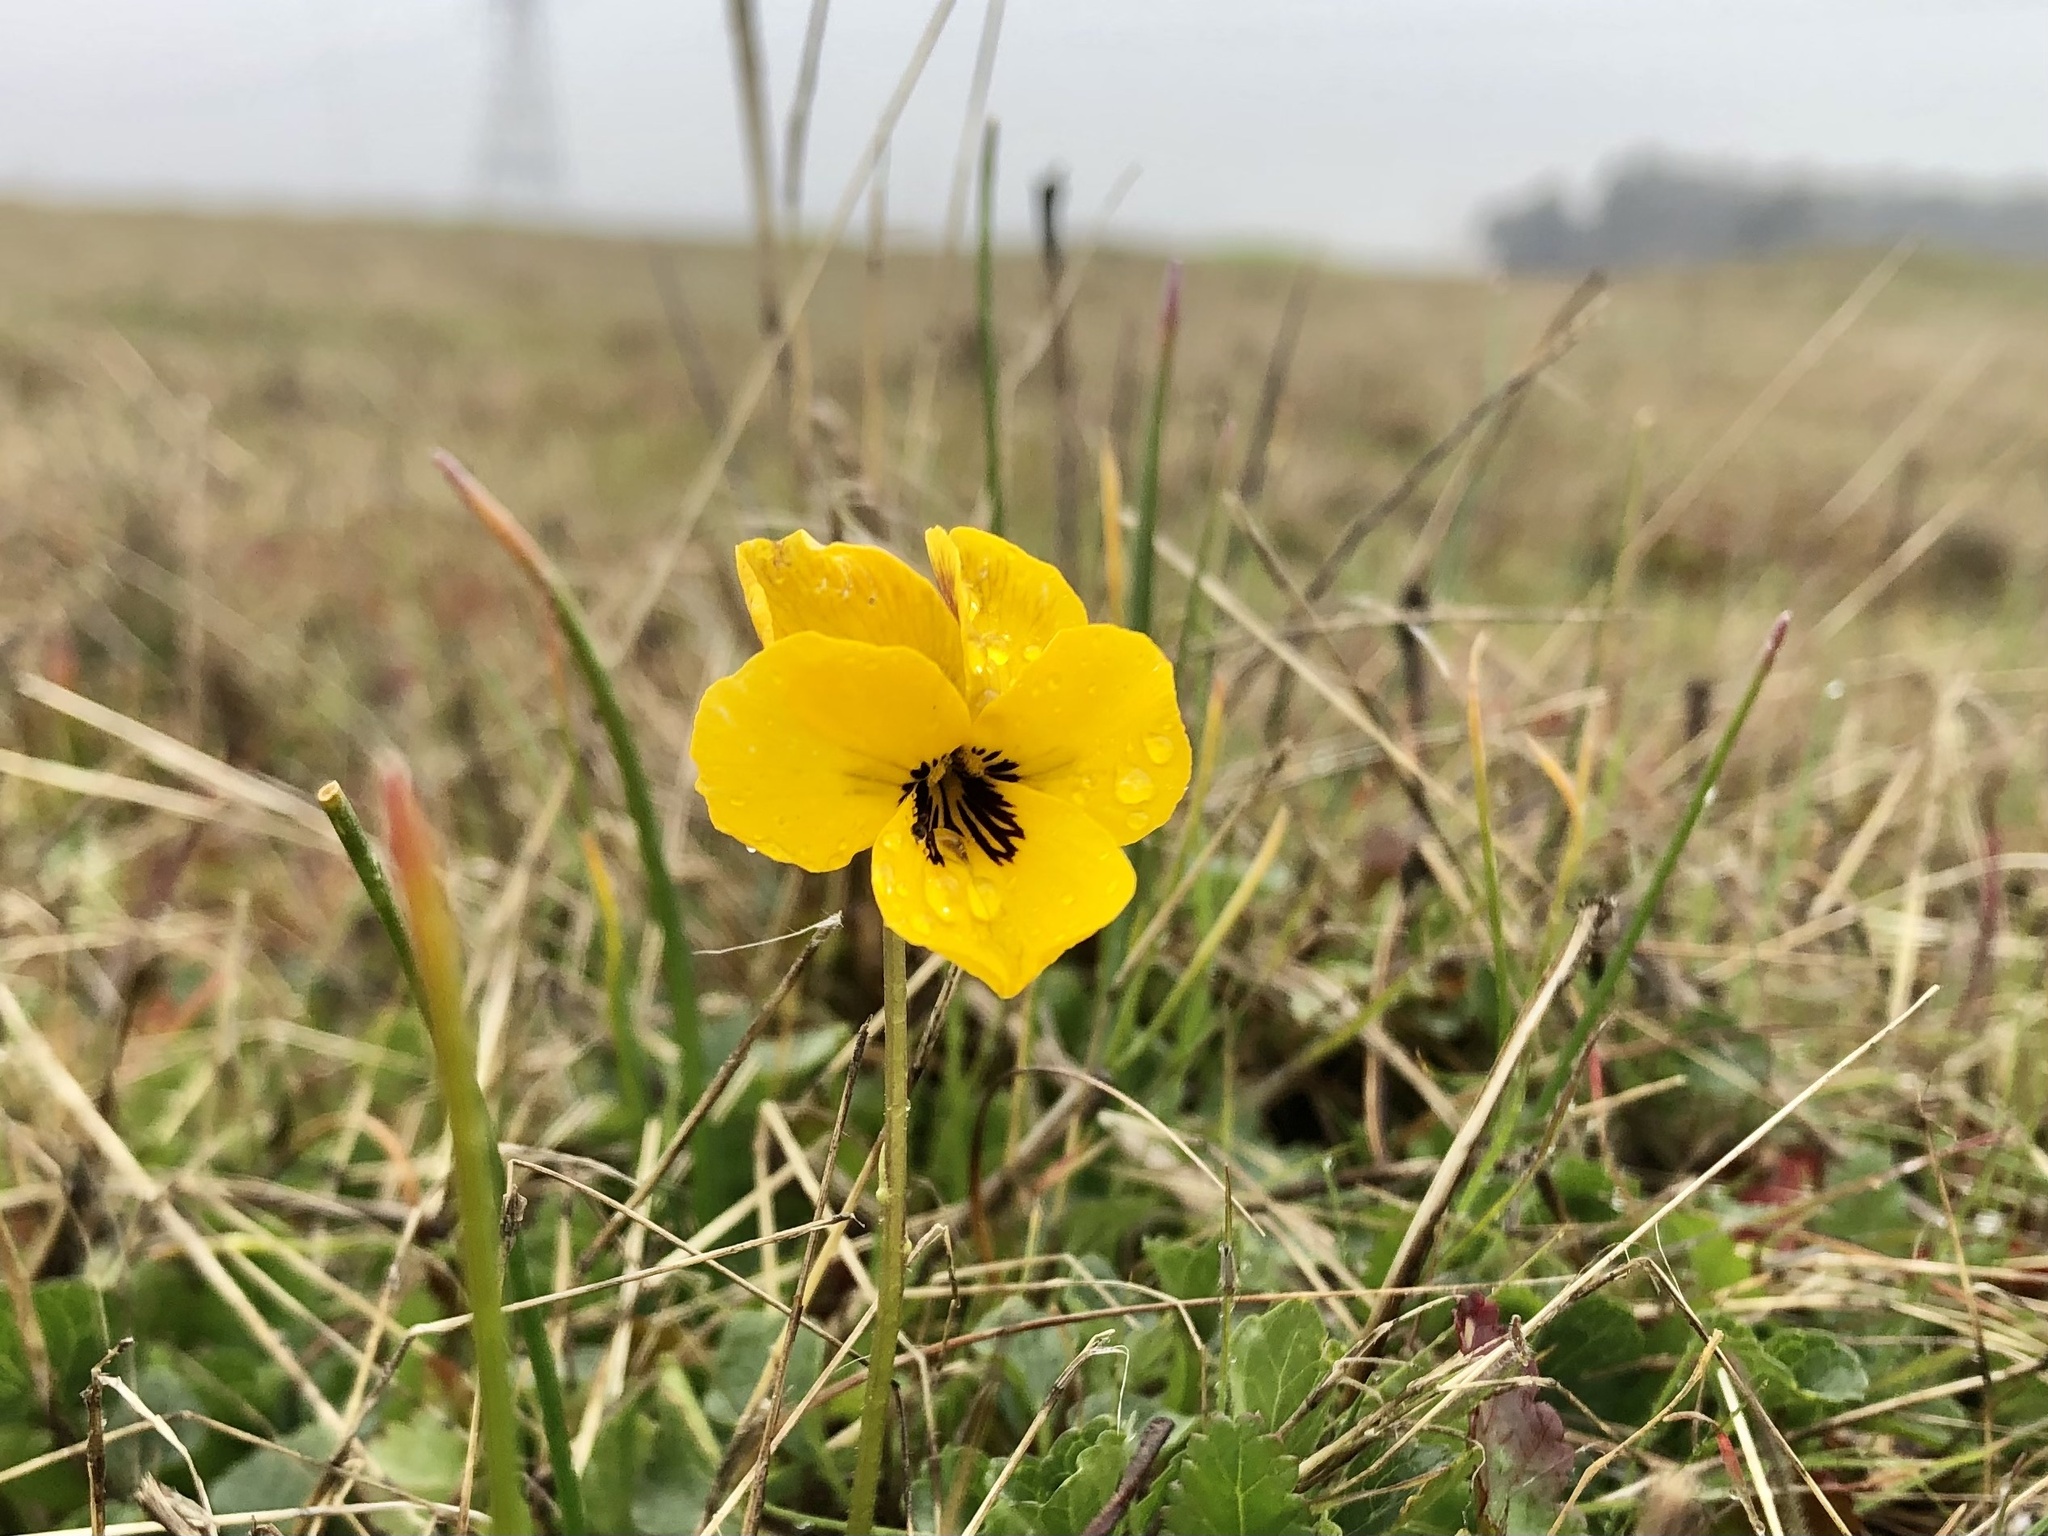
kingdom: Plantae
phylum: Tracheophyta
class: Magnoliopsida
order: Malpighiales
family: Violaceae
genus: Viola
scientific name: Viola pedunculata
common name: California golden violet
